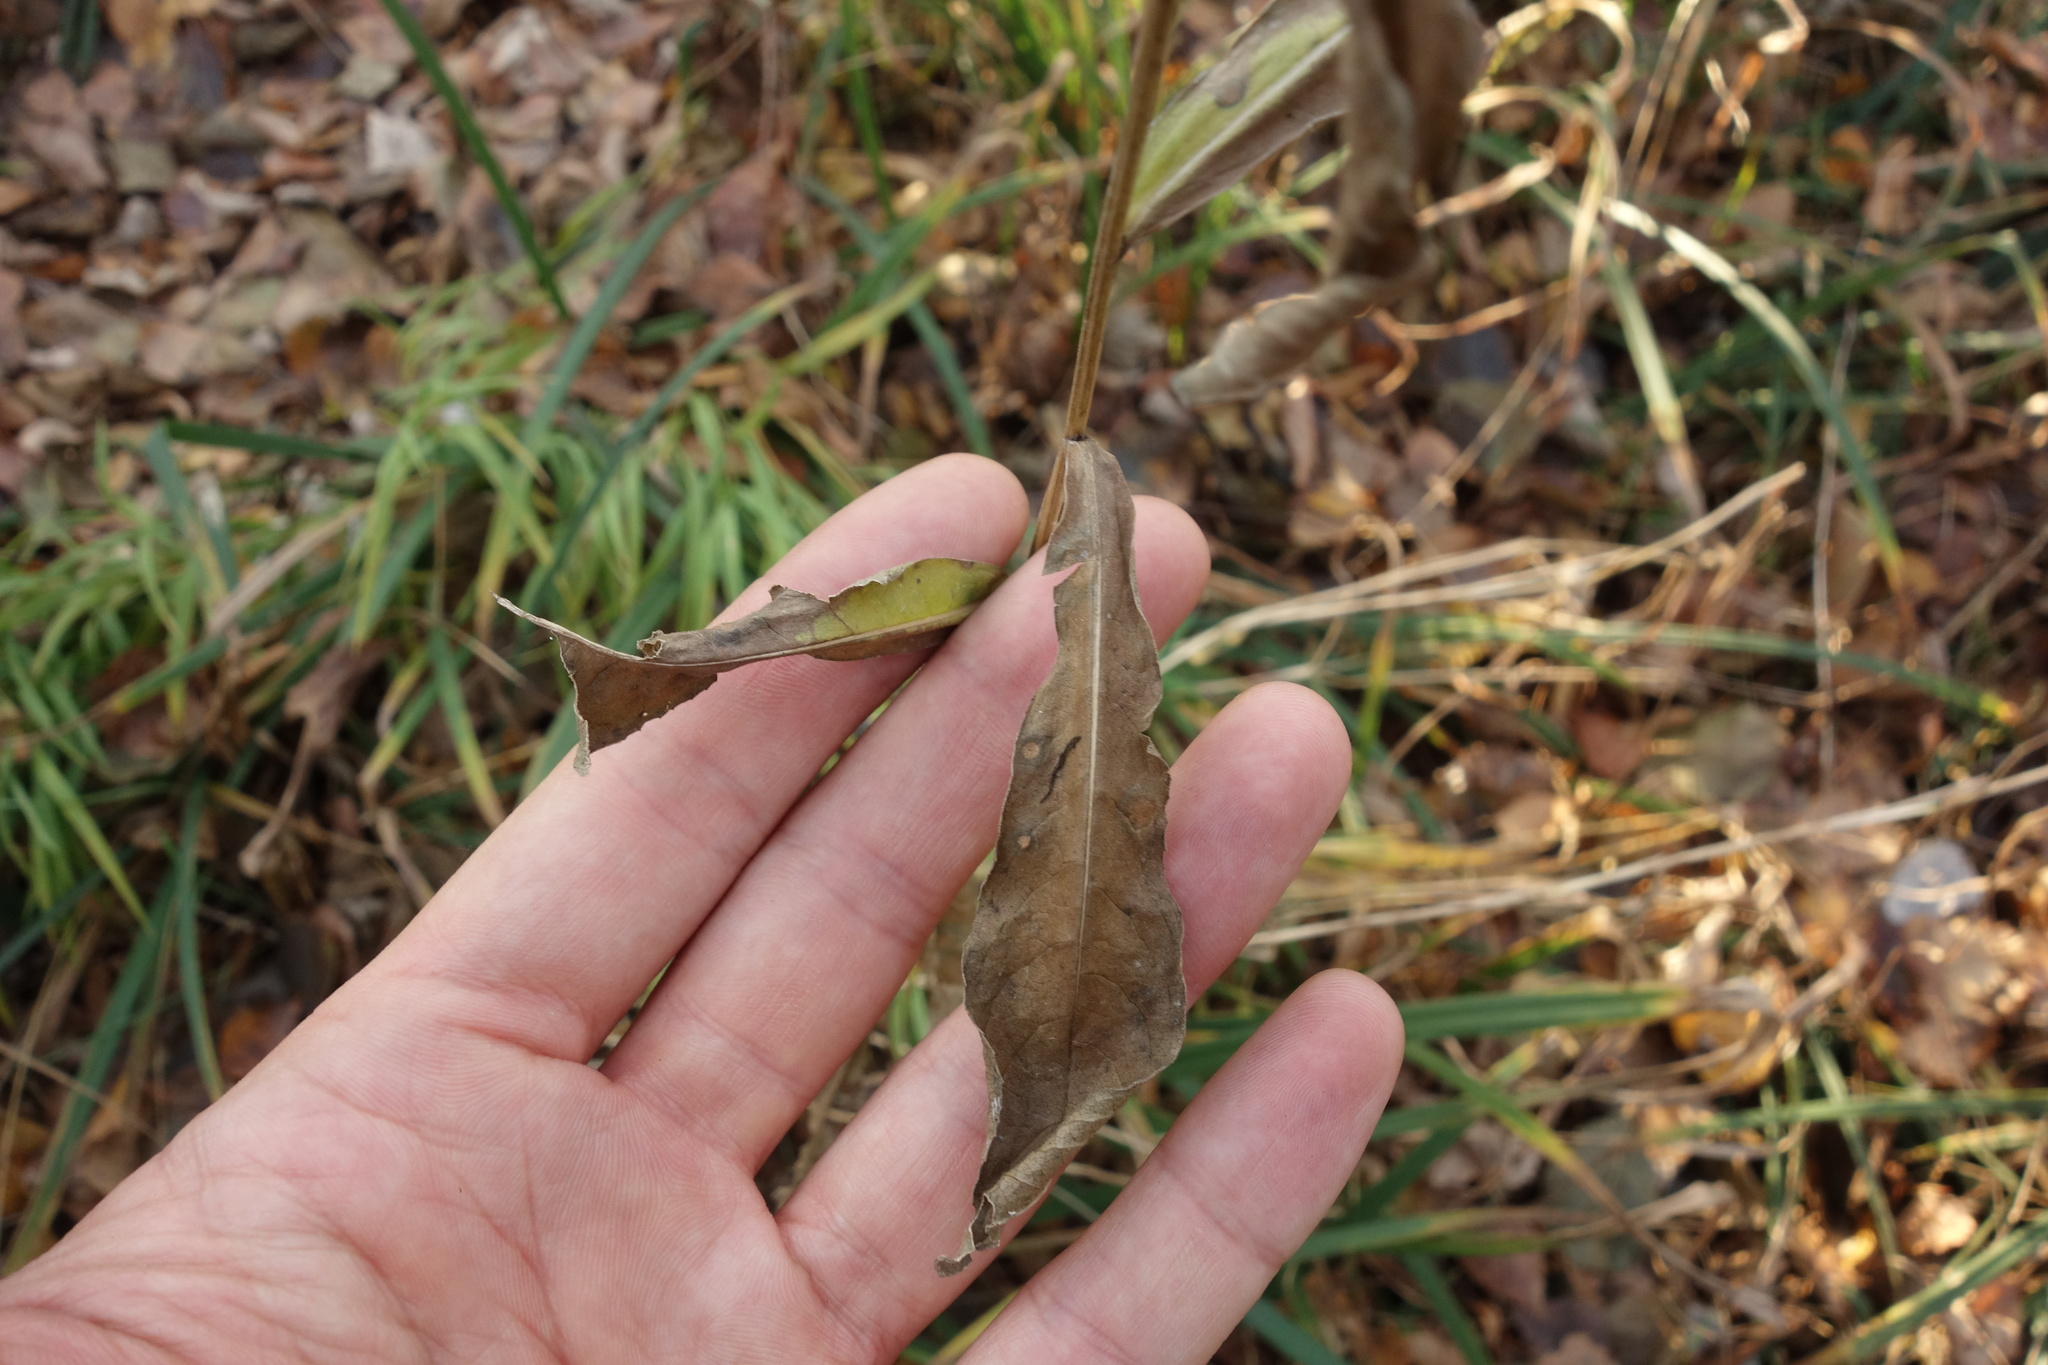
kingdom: Plantae
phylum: Tracheophyta
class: Magnoliopsida
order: Asterales
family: Asteraceae
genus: Centaurea
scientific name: Centaurea pseudophrygia
